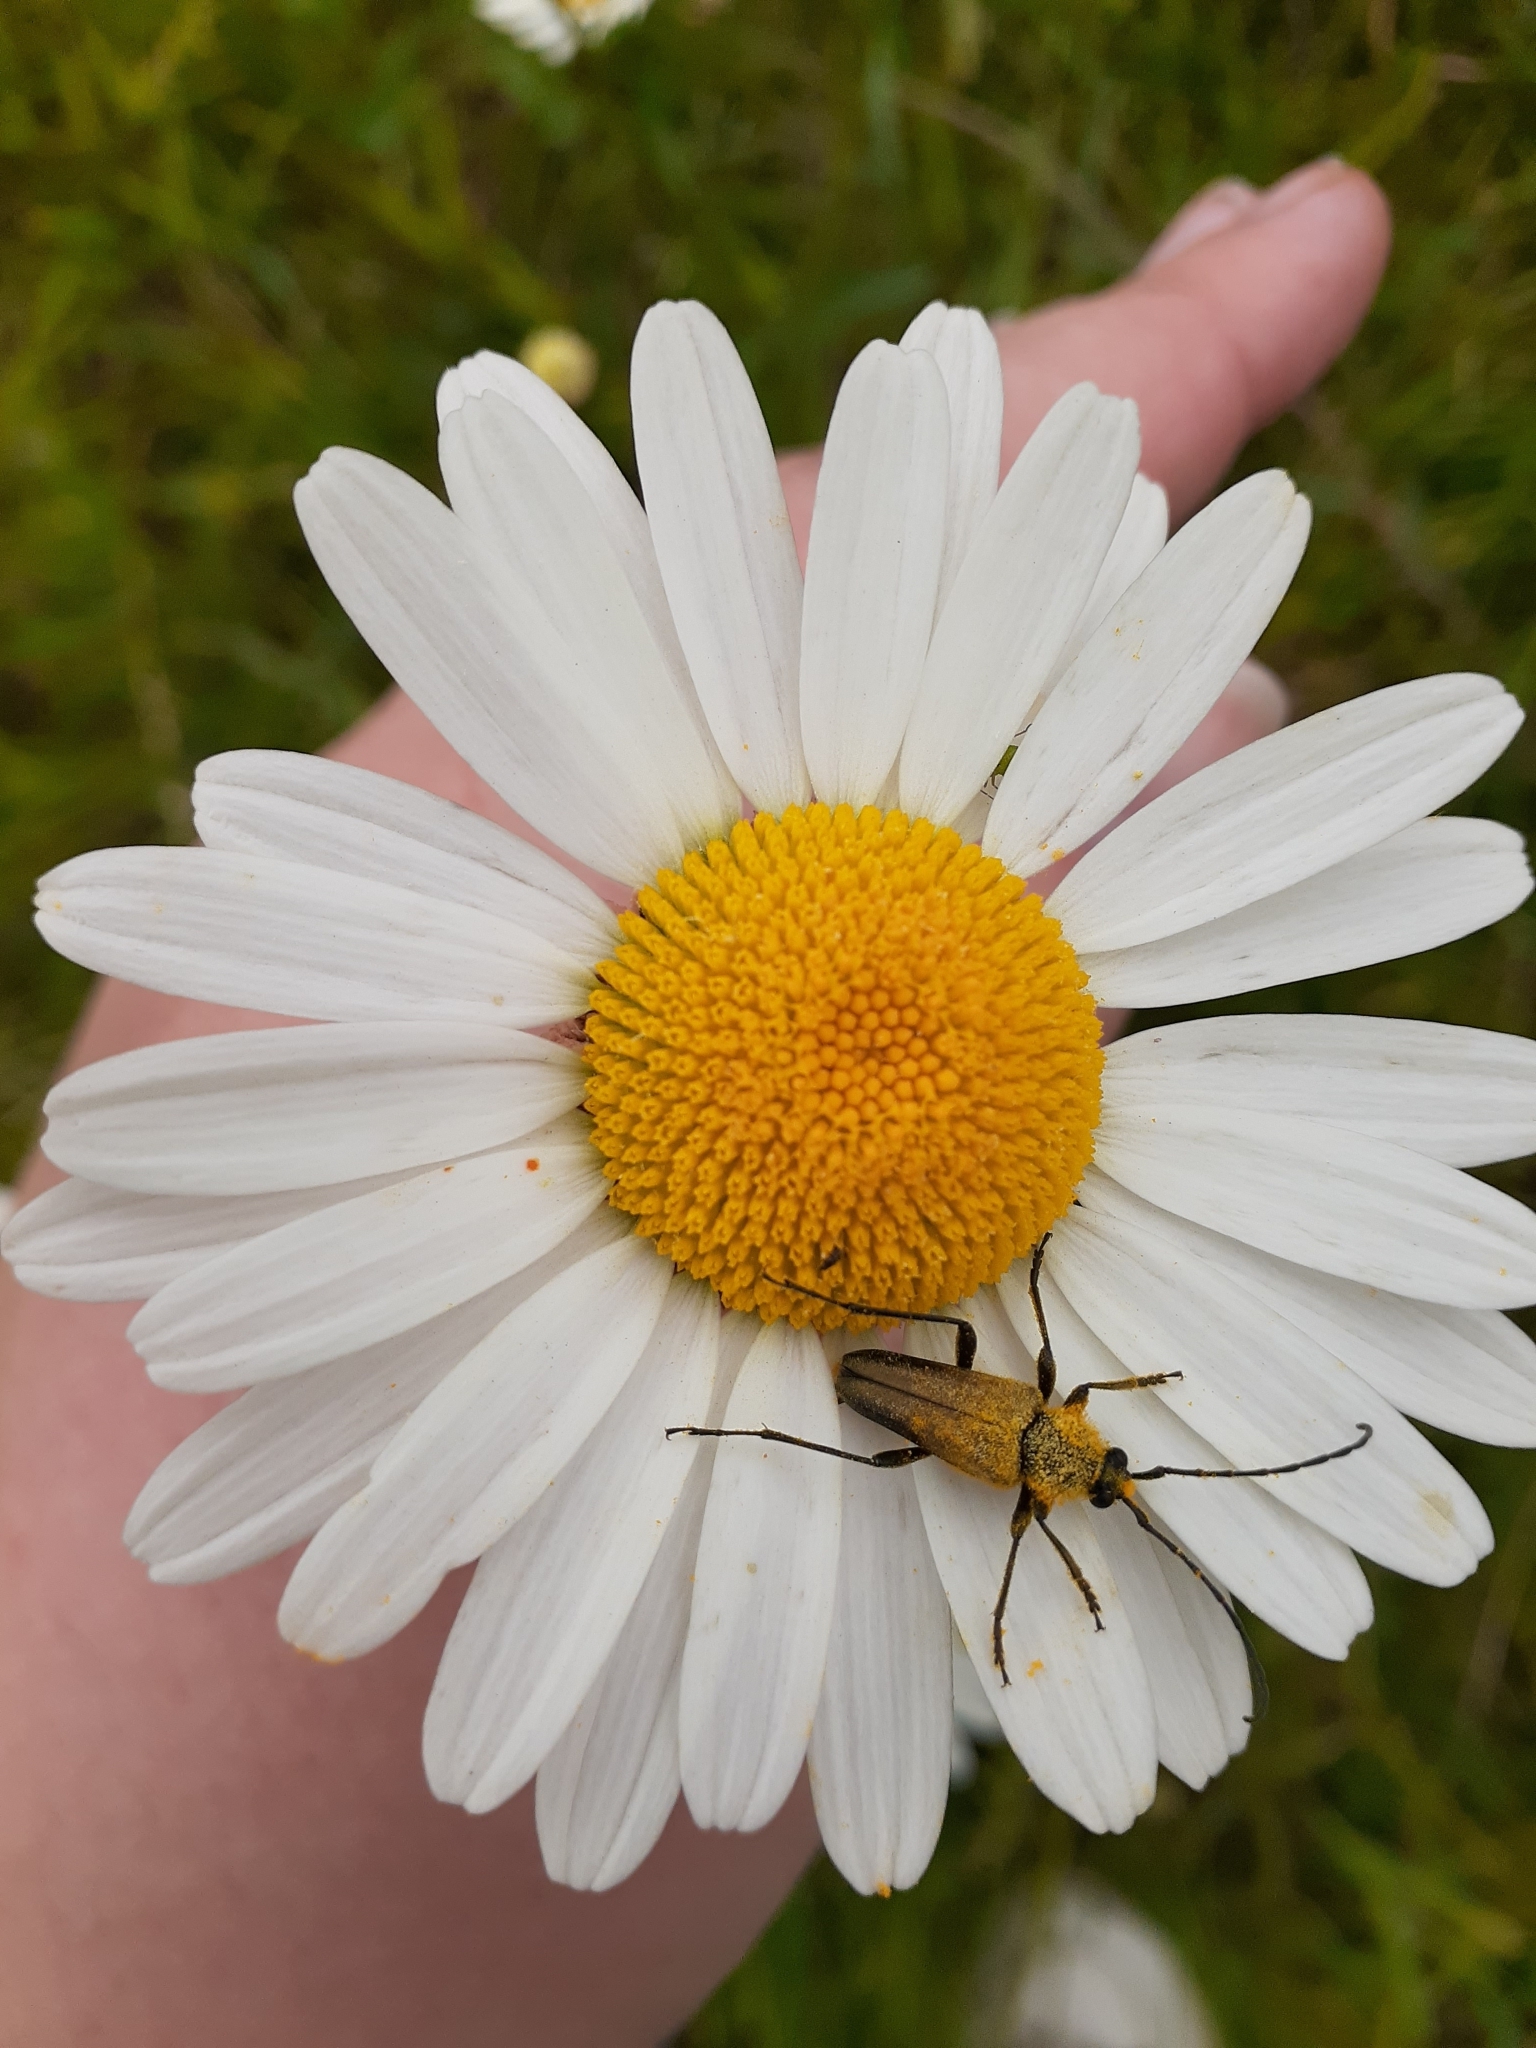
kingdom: Animalia
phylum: Arthropoda
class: Insecta
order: Coleoptera
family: Cerambycidae
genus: Cosmosalia
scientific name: Cosmosalia chrysocoma
